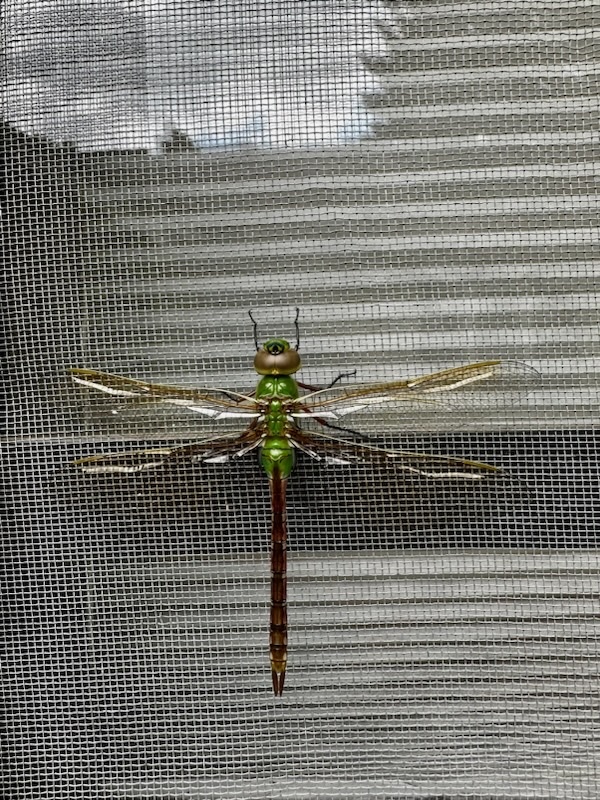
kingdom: Animalia
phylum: Arthropoda
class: Insecta
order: Odonata
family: Aeshnidae
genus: Anax
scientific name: Anax junius
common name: Common green darner
